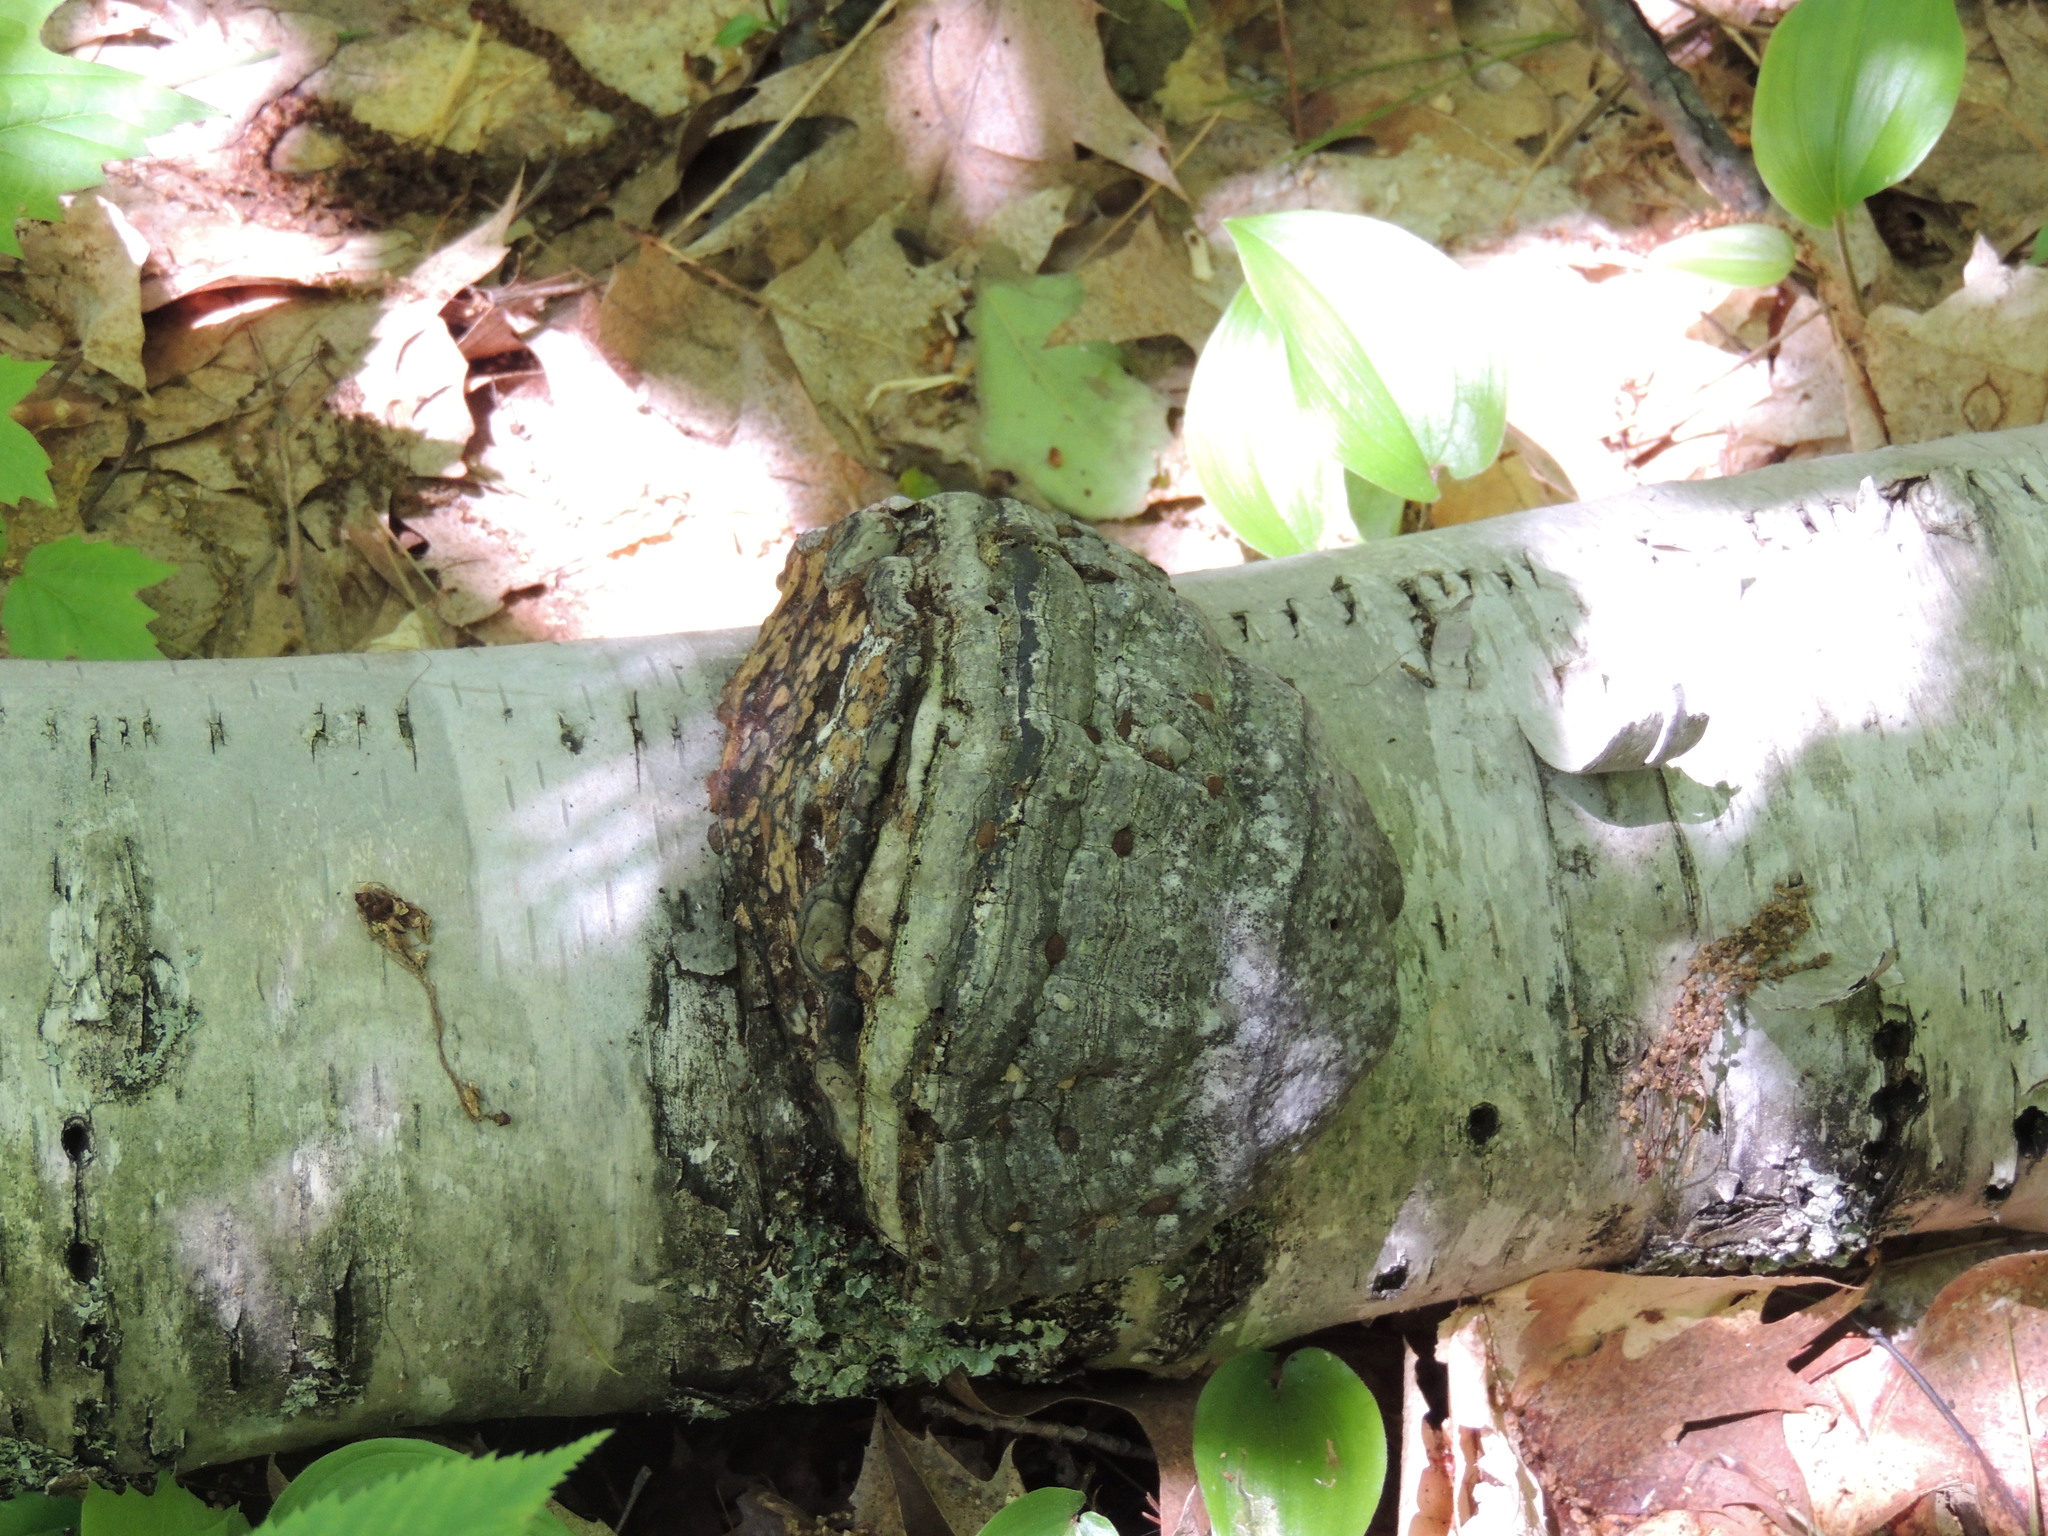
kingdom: Fungi
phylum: Basidiomycota
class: Agaricomycetes
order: Polyporales
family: Polyporaceae
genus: Fomes
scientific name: Fomes fomentarius
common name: Hoof fungus
